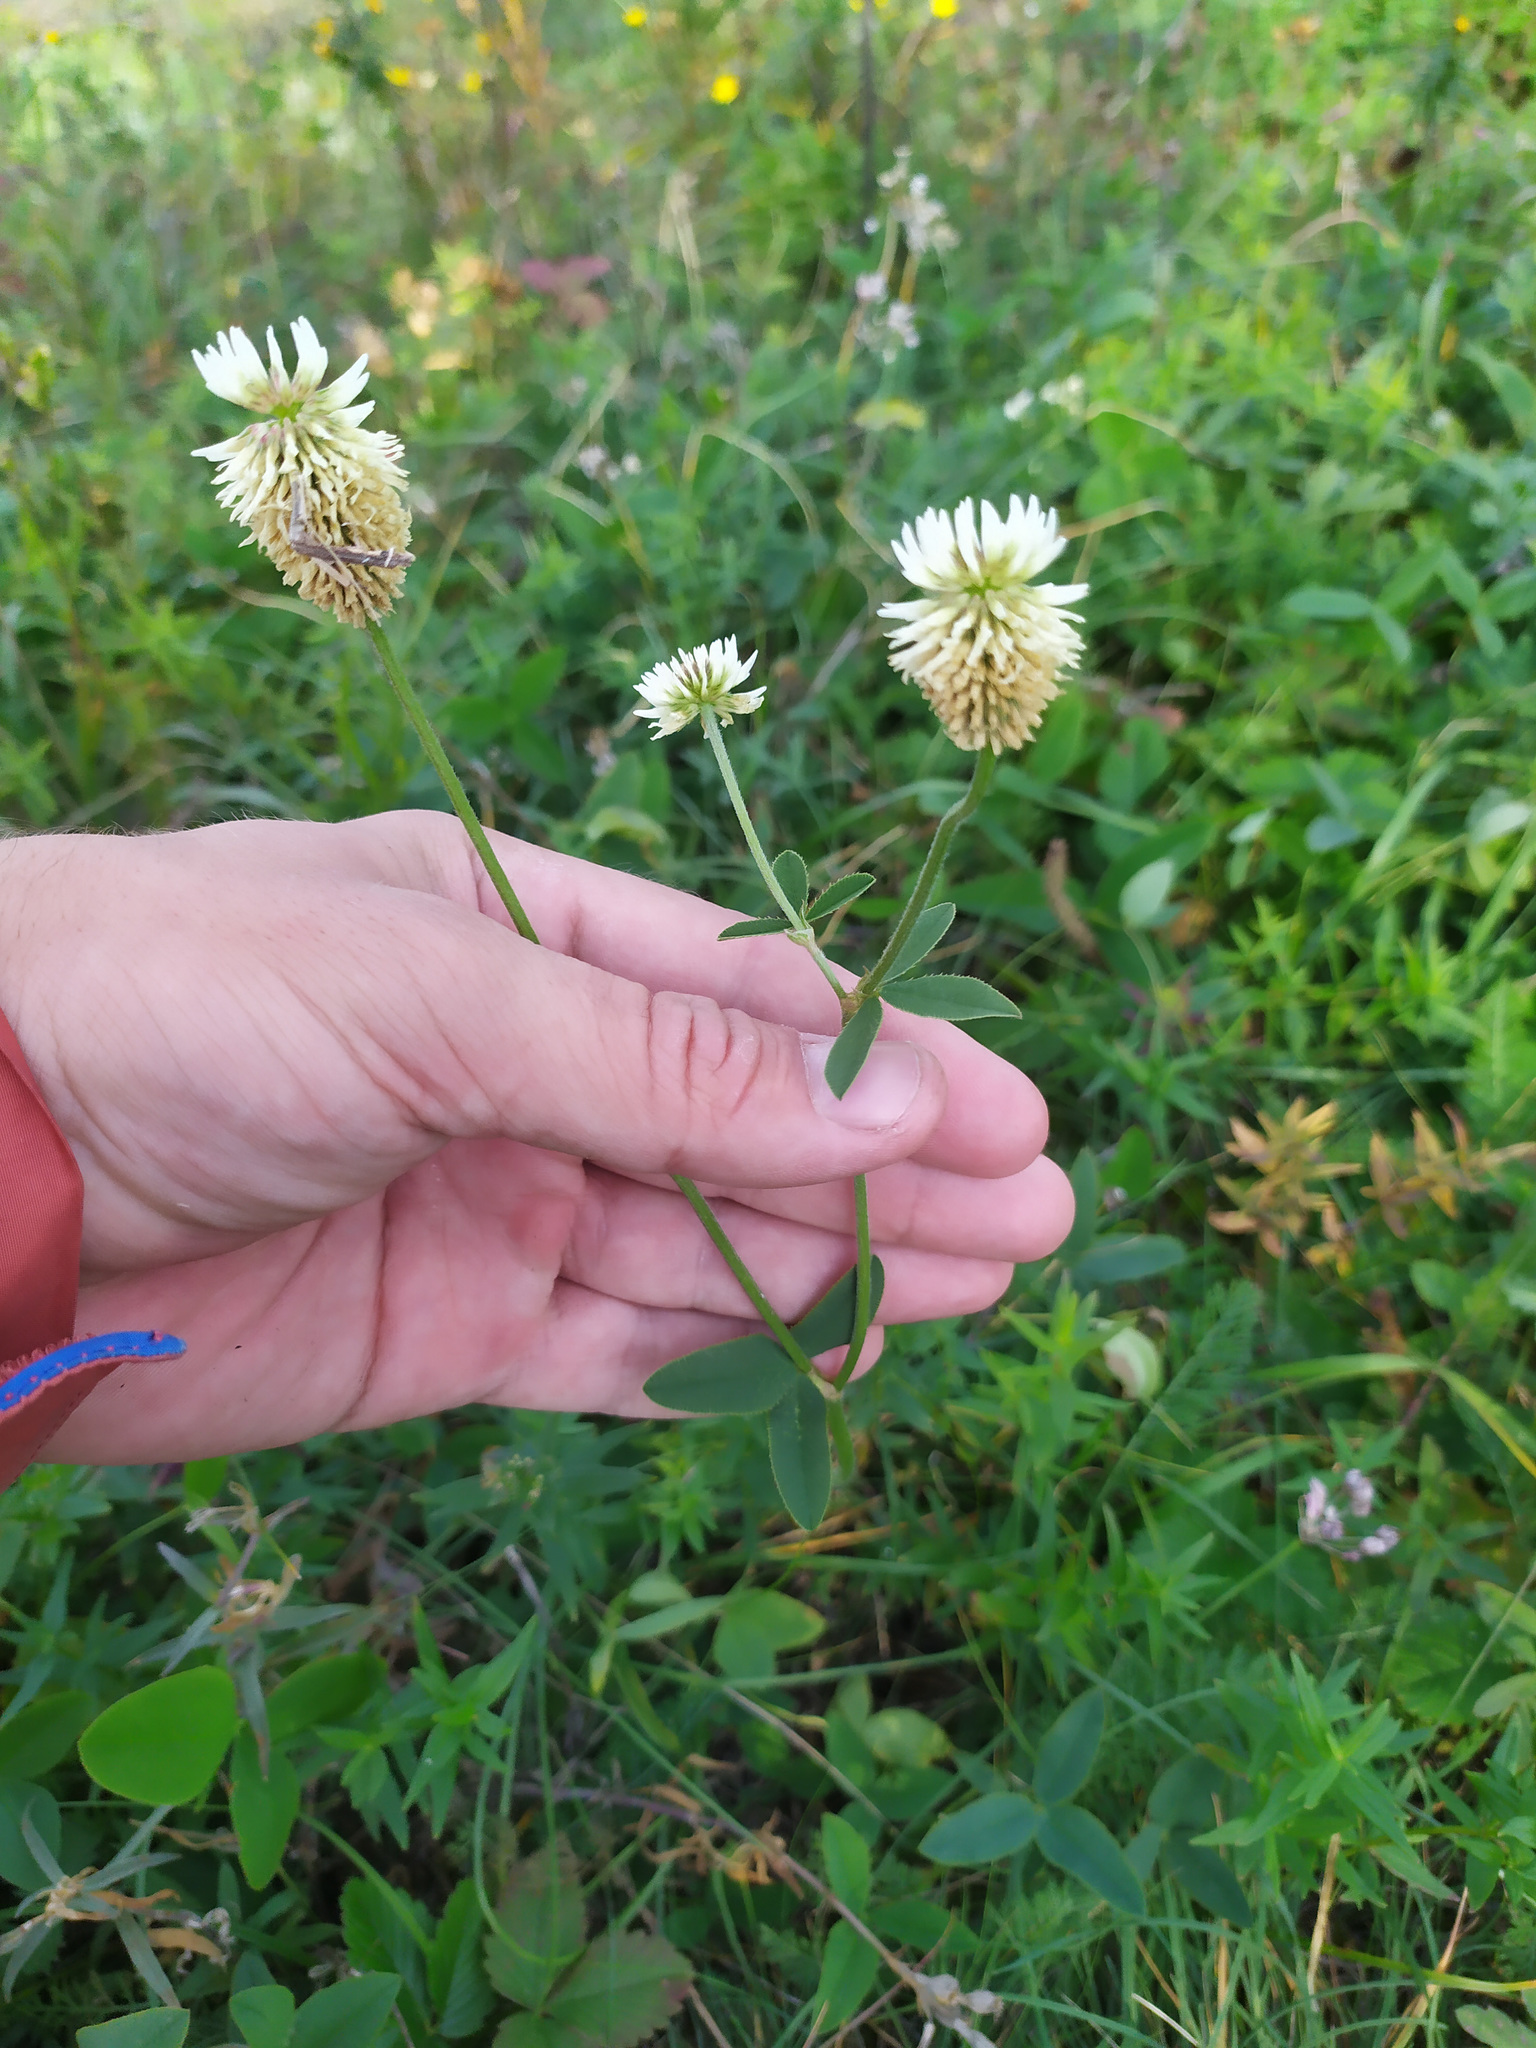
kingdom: Plantae
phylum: Tracheophyta
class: Magnoliopsida
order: Fabales
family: Fabaceae
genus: Trifolium
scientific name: Trifolium montanum
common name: Mountain clover
